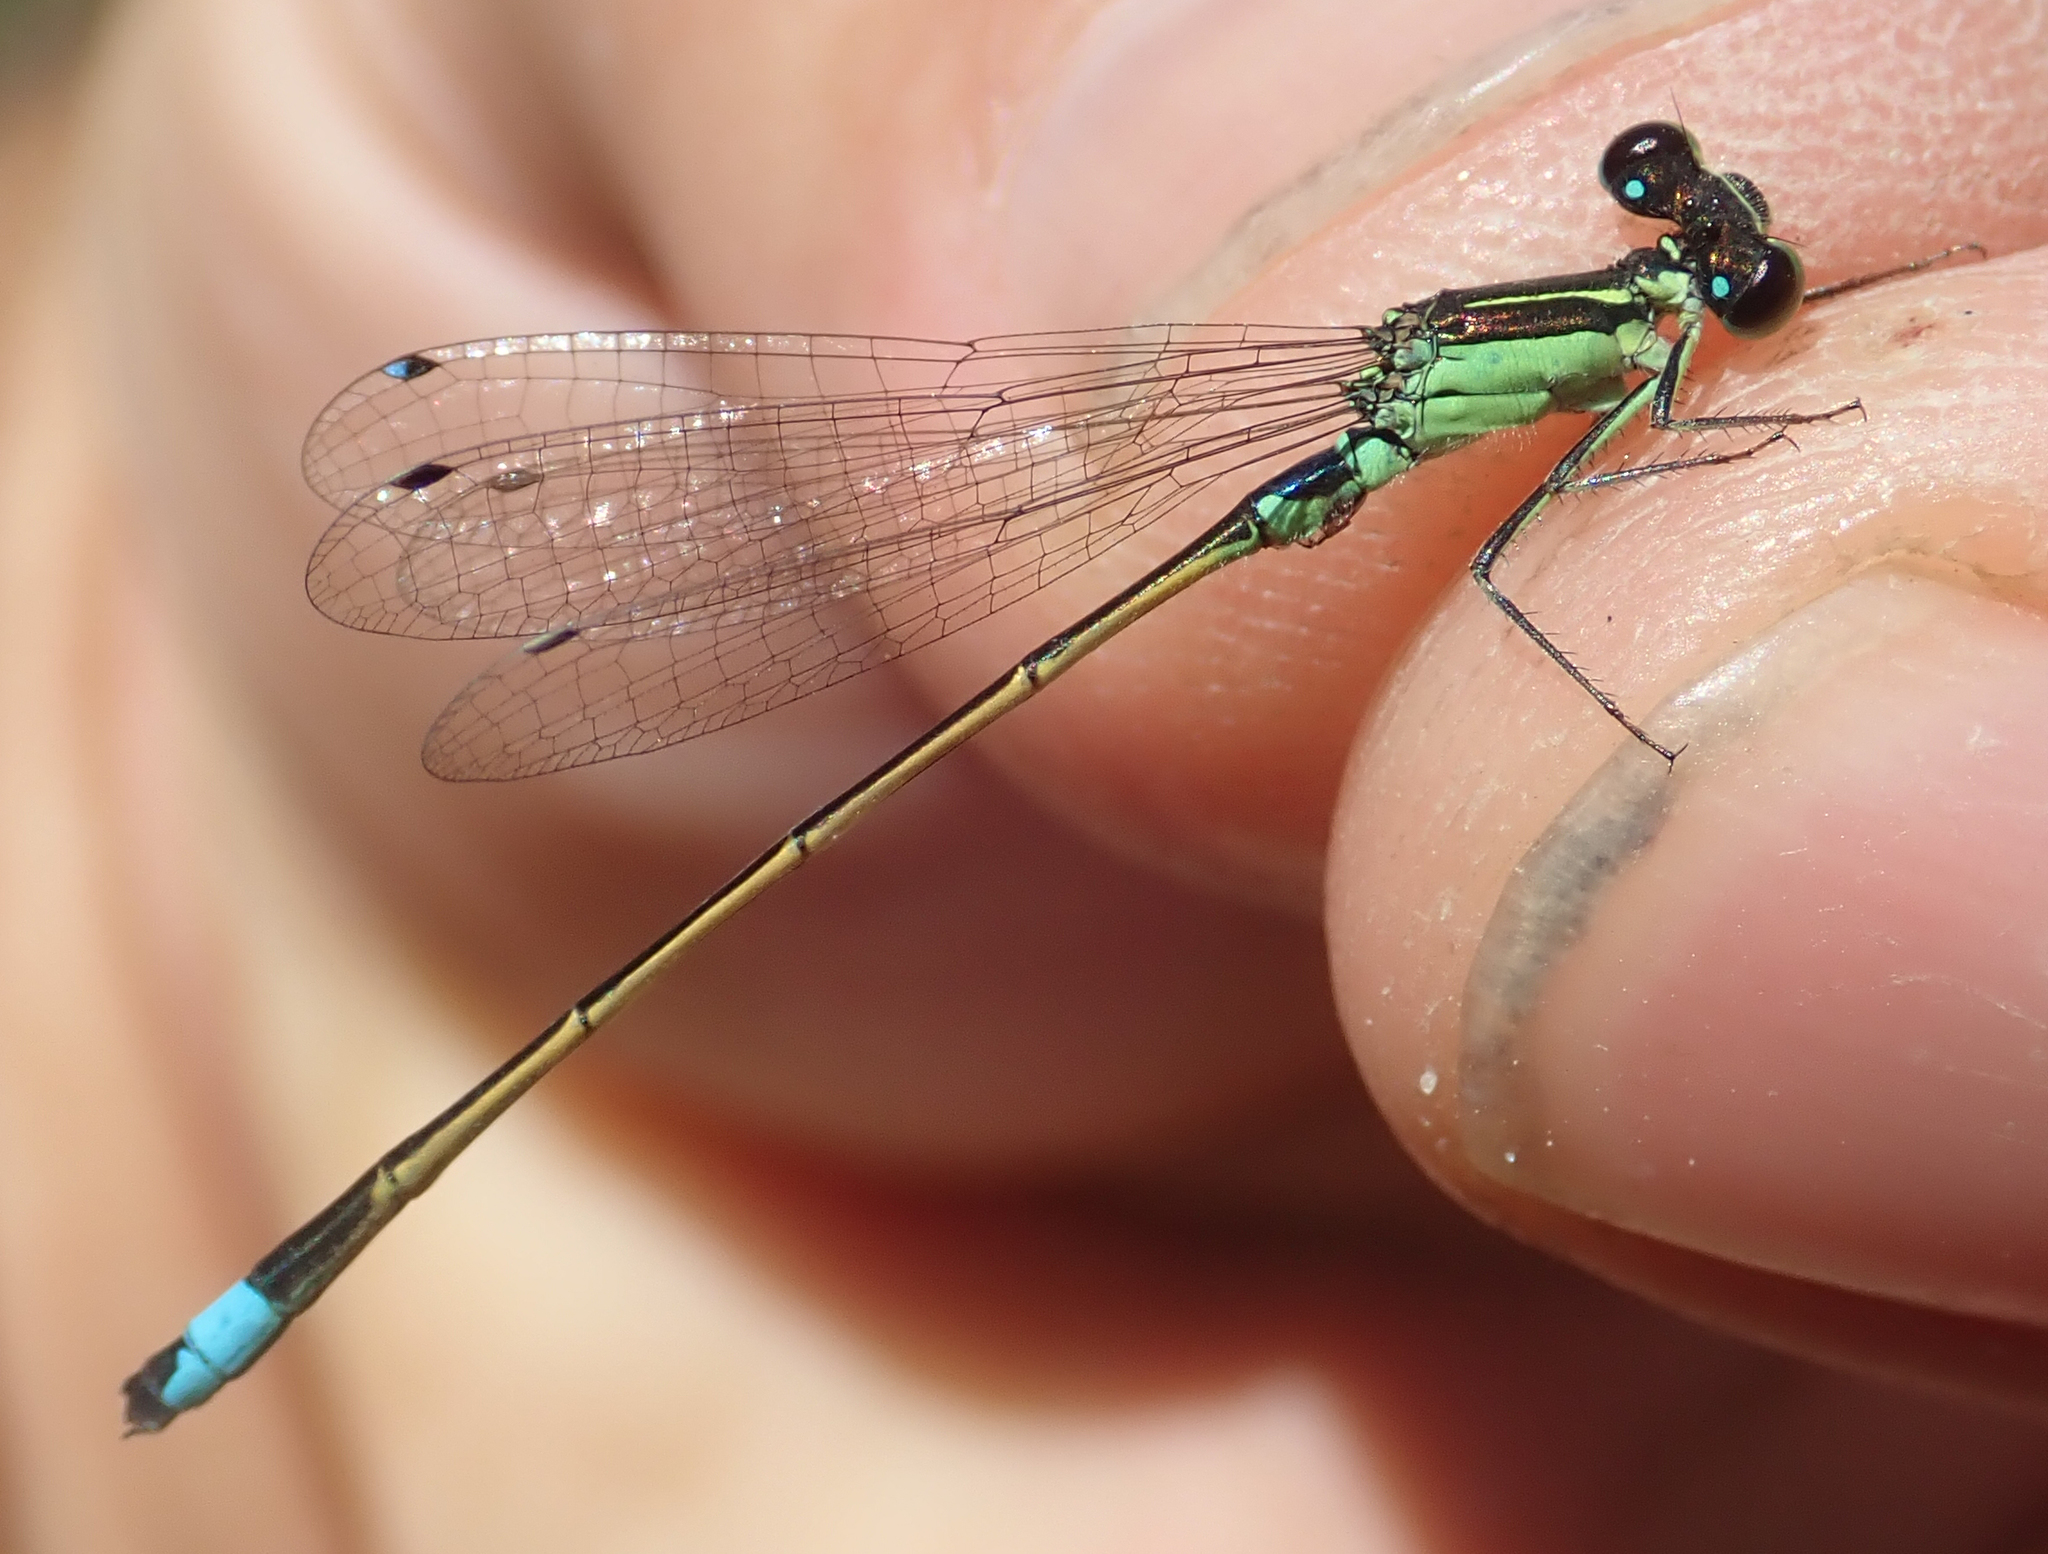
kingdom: Animalia
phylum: Arthropoda
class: Insecta
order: Odonata
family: Coenagrionidae
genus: Ischnura
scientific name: Ischnura senegalensis
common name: Tropical bluetail
